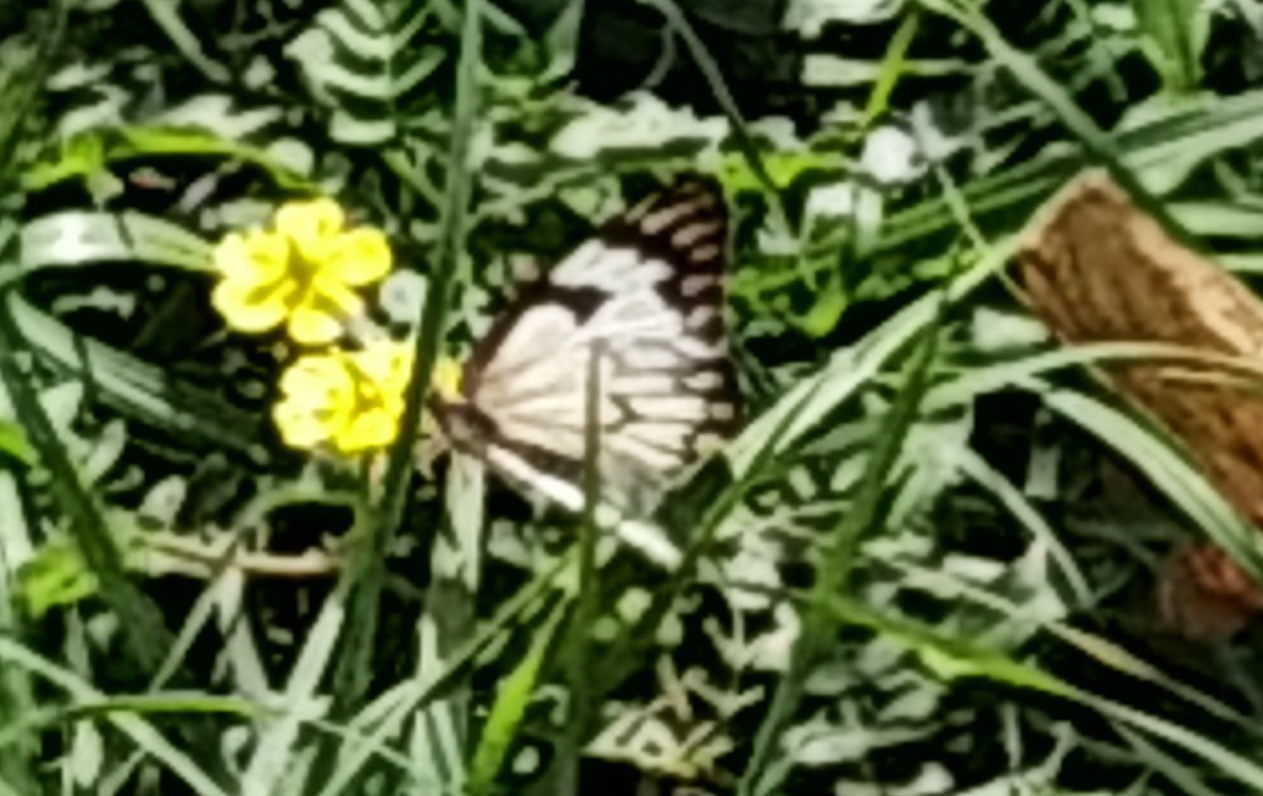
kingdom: Animalia
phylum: Arthropoda
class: Insecta
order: Lepidoptera
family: Pieridae
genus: Belenois
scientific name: Belenois aurota
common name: Brown-veined white
